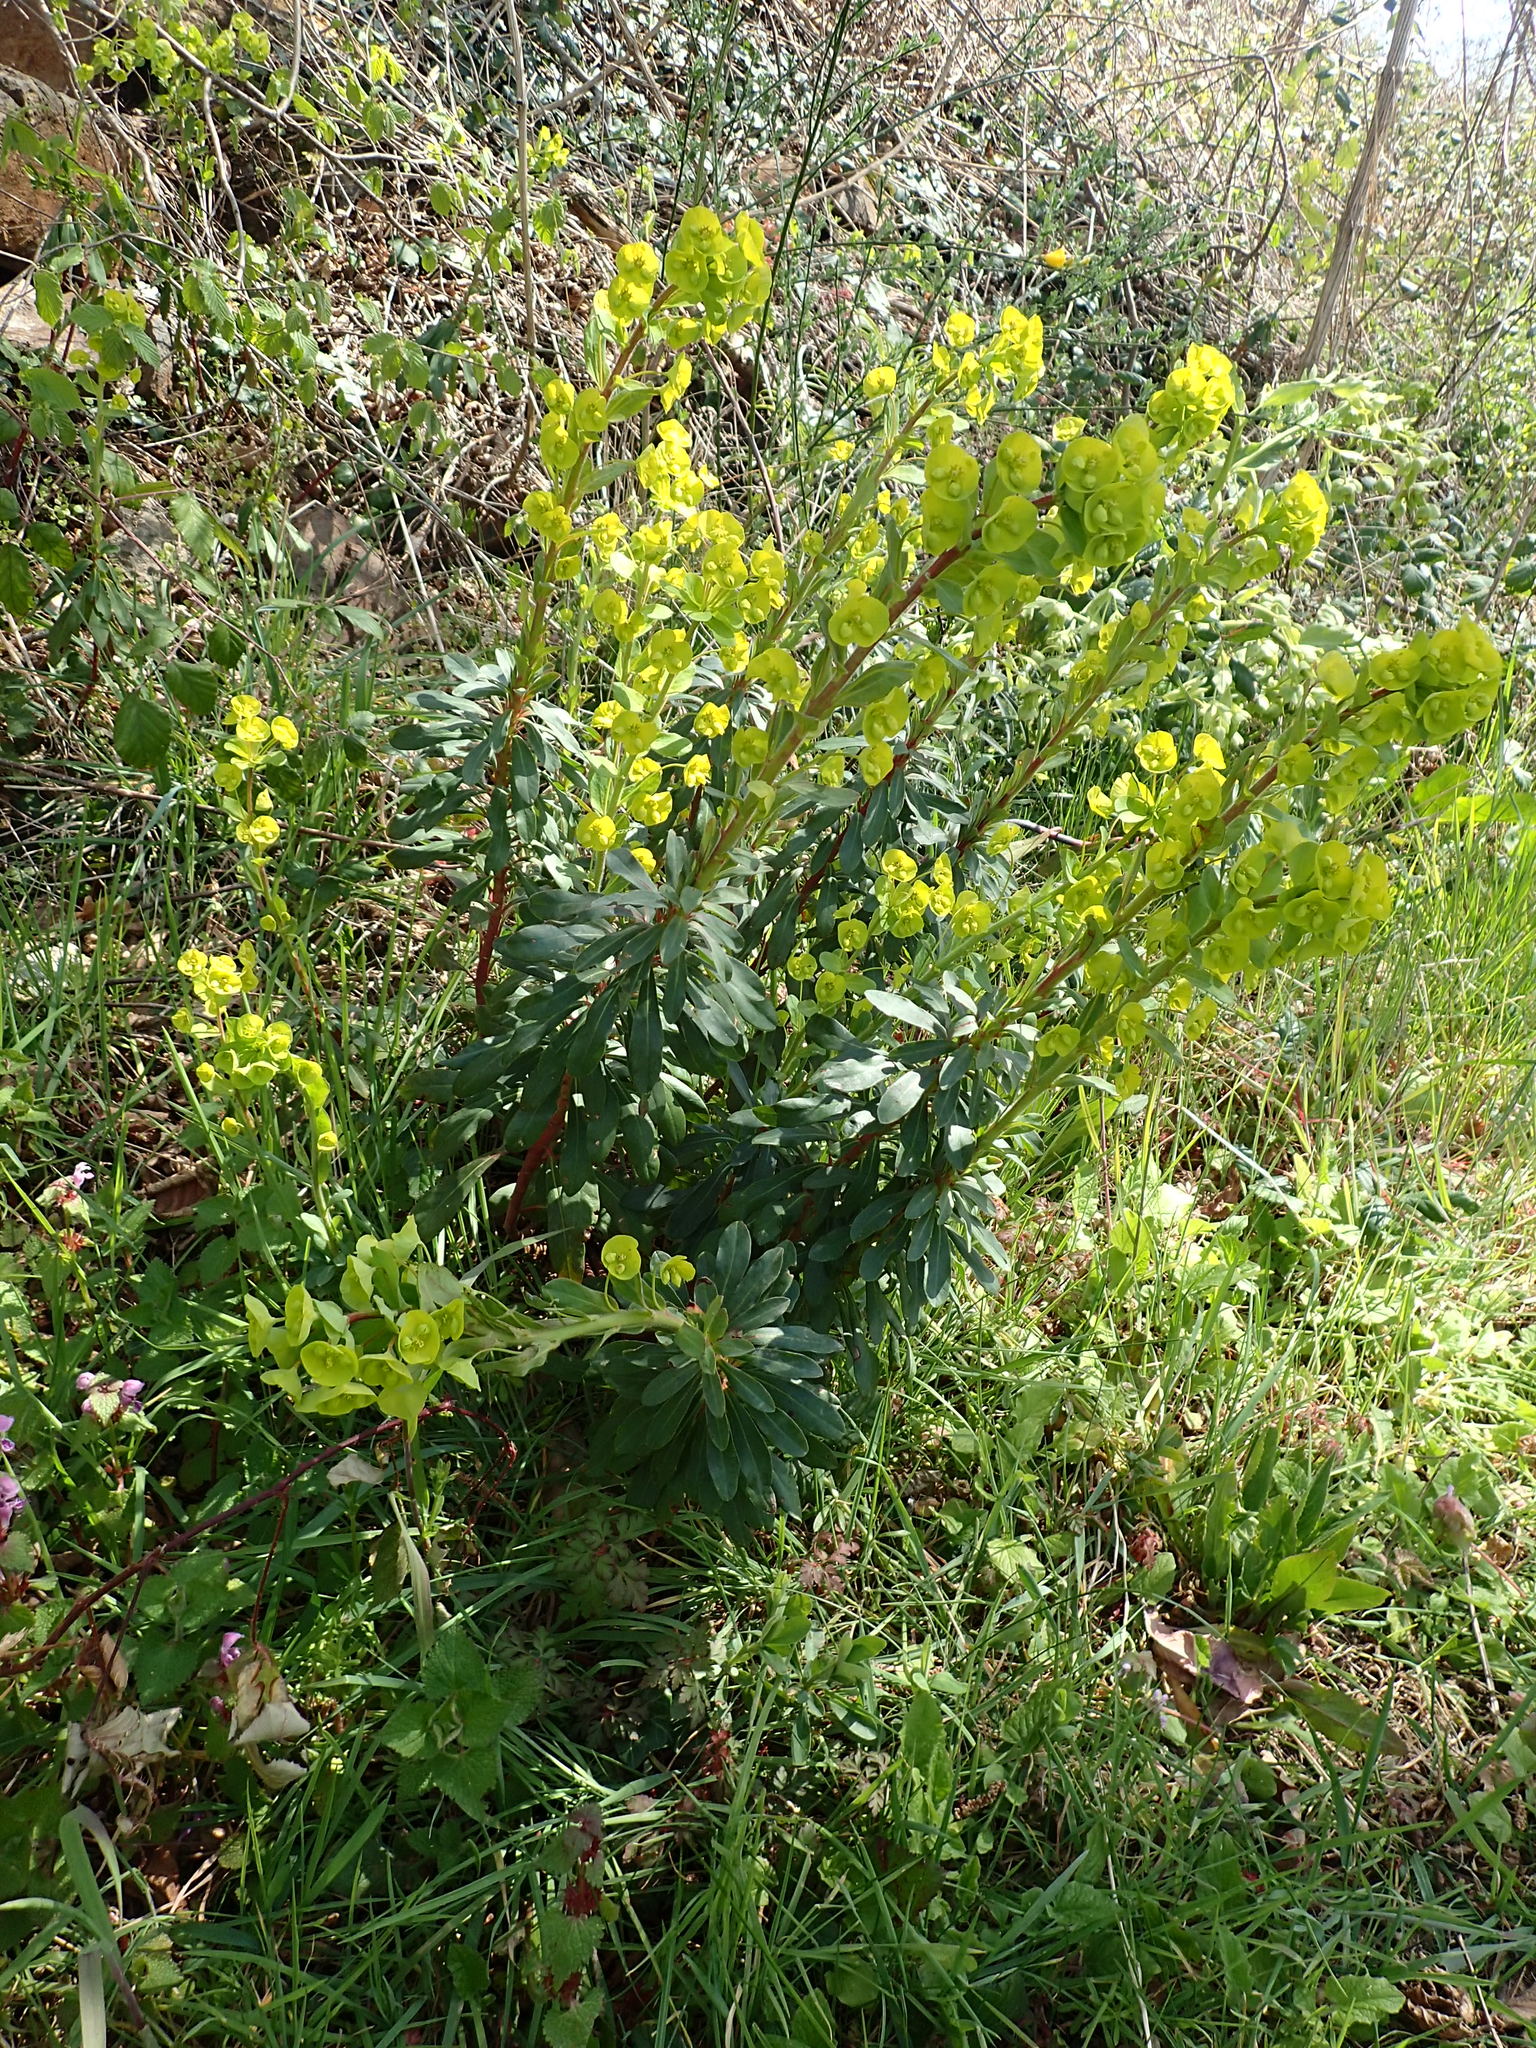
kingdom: Plantae
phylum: Tracheophyta
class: Magnoliopsida
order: Malpighiales
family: Euphorbiaceae
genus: Euphorbia
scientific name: Euphorbia amygdaloides
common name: Wood spurge
